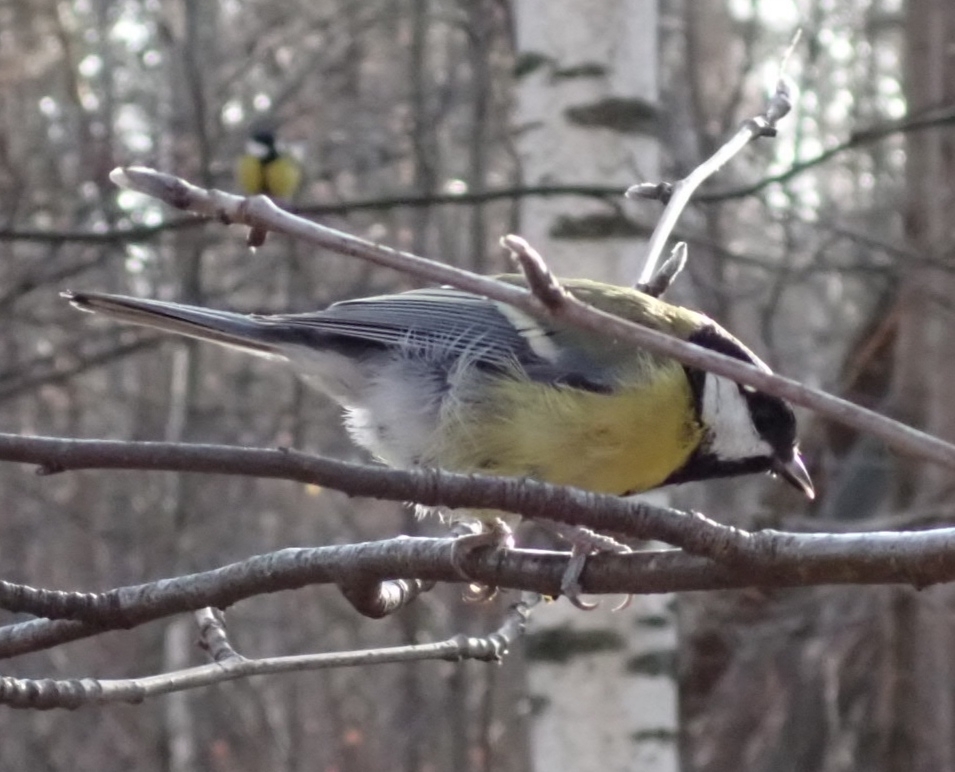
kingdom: Animalia
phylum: Chordata
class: Aves
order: Passeriformes
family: Paridae
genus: Parus
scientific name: Parus major
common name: Great tit
